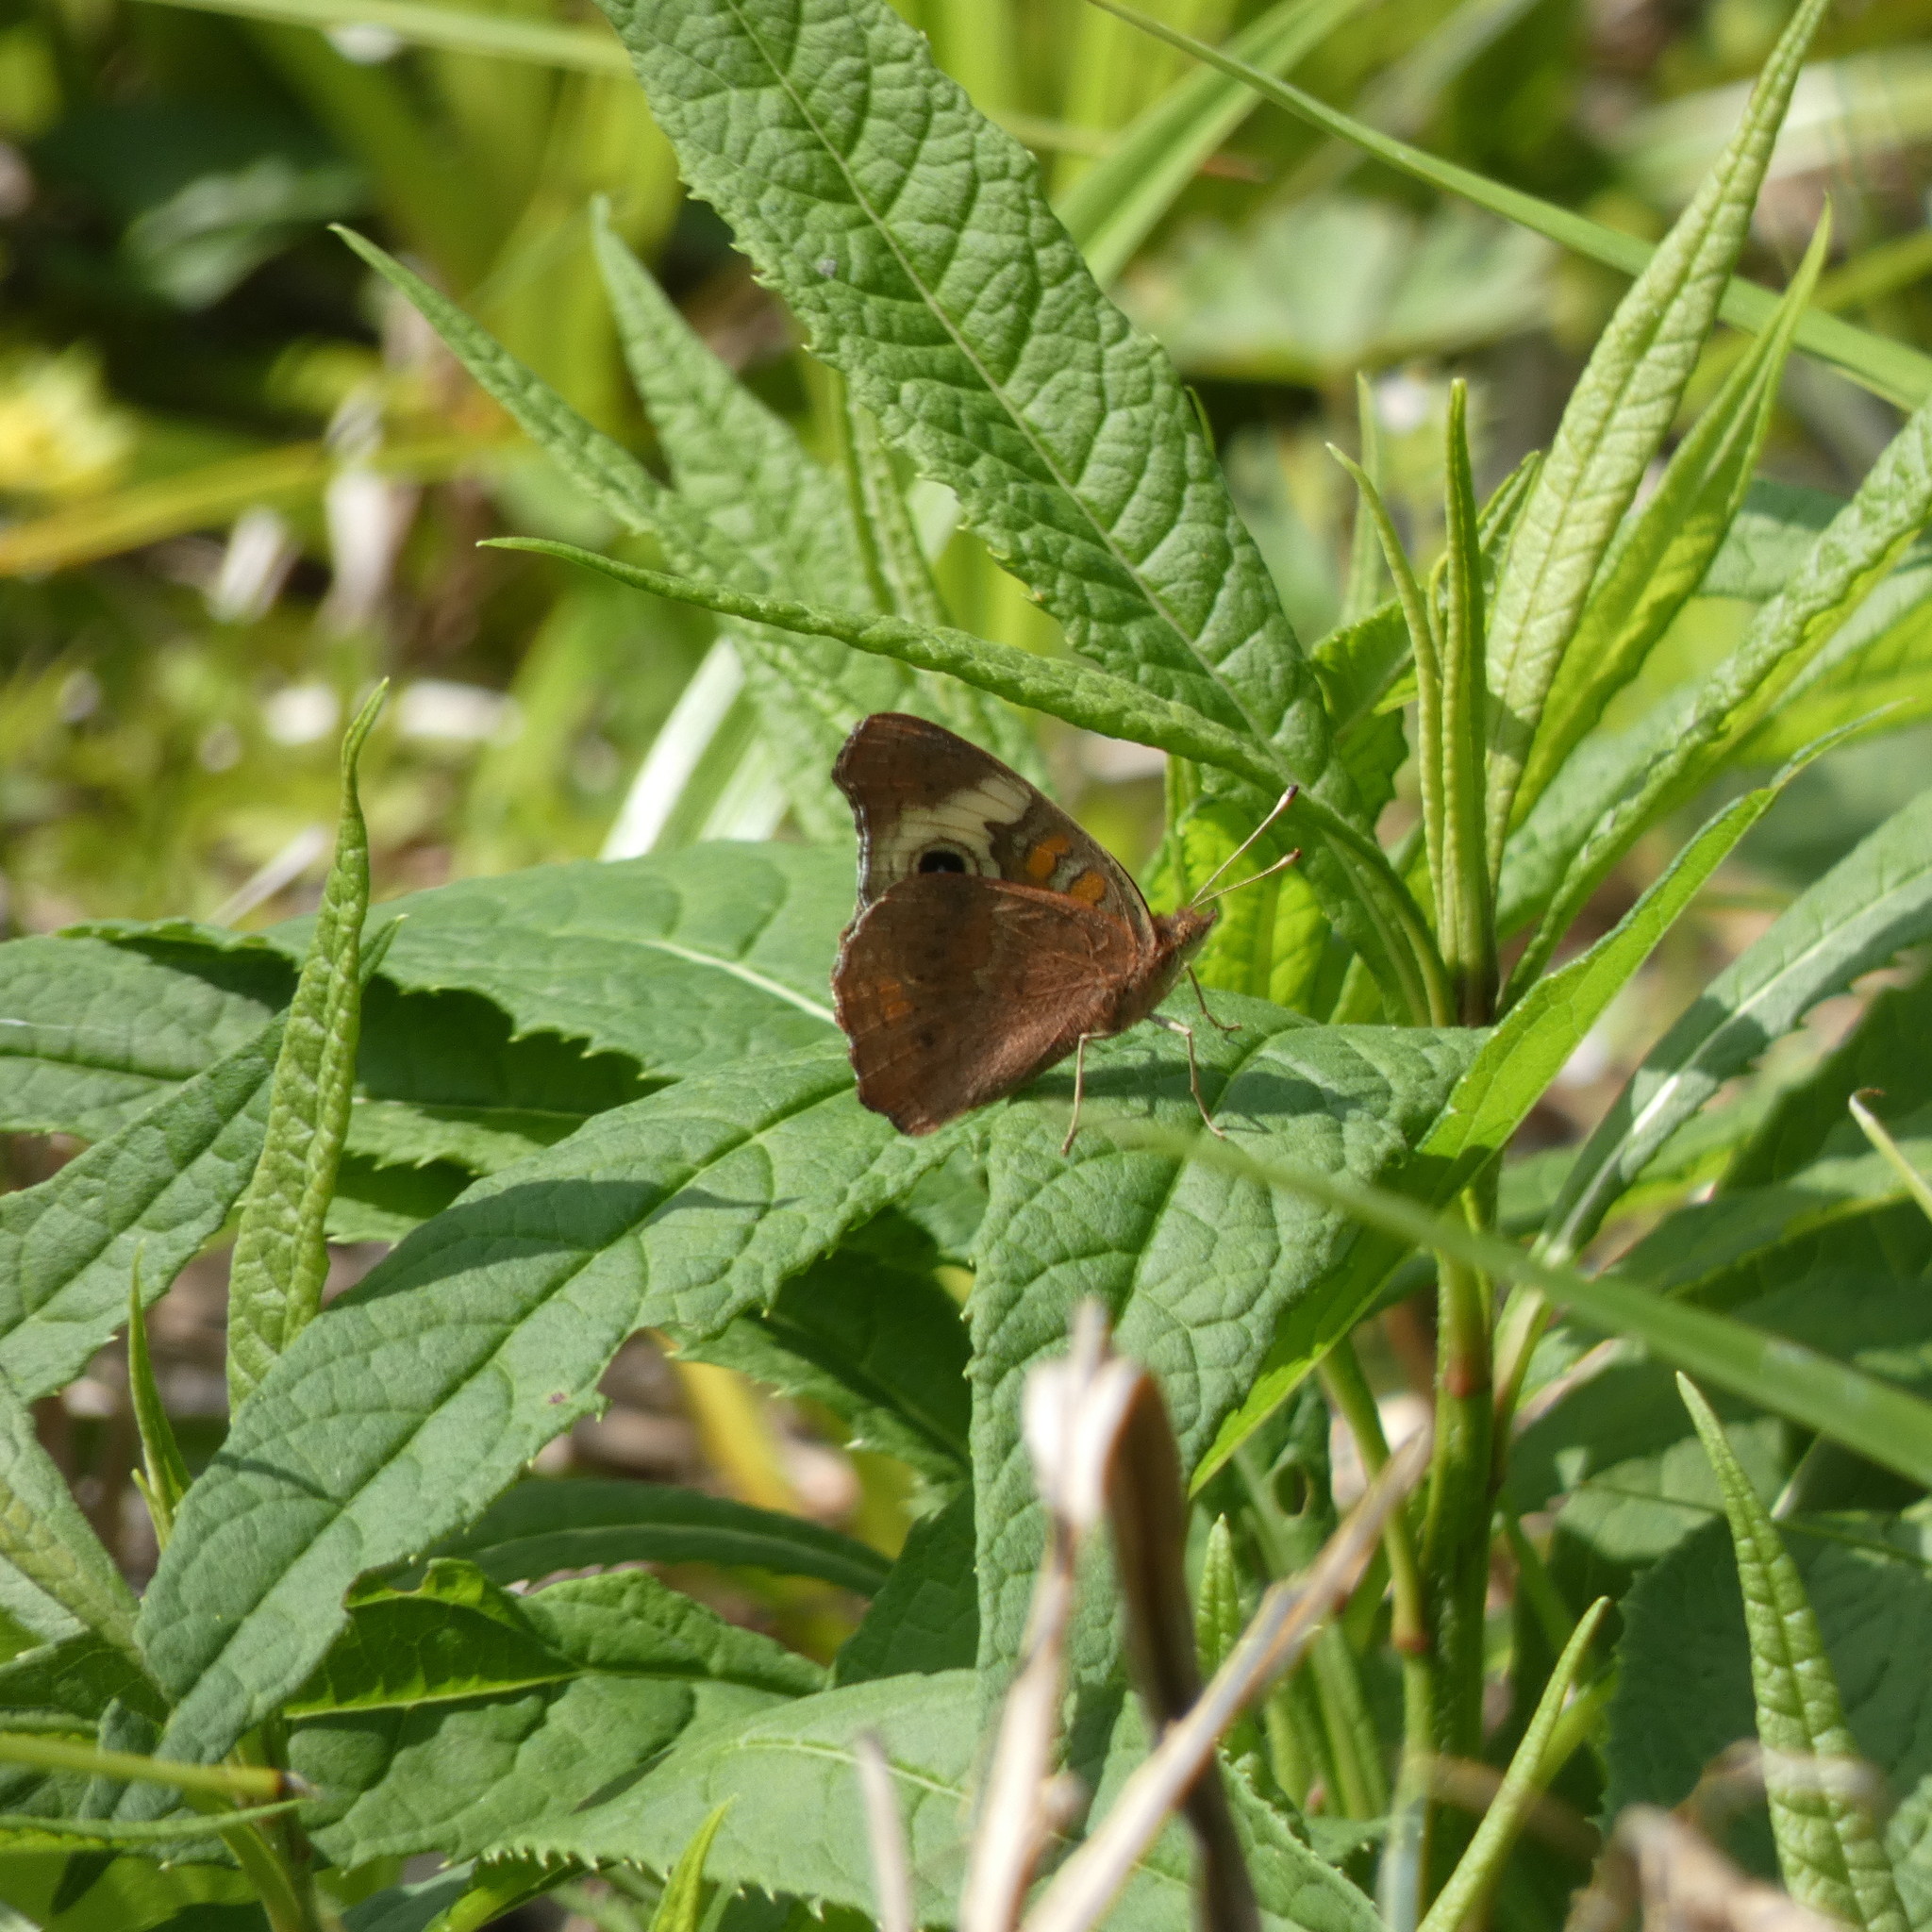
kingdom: Animalia
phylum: Arthropoda
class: Insecta
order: Lepidoptera
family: Nymphalidae
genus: Junonia
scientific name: Junonia coenia
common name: Common buckeye
